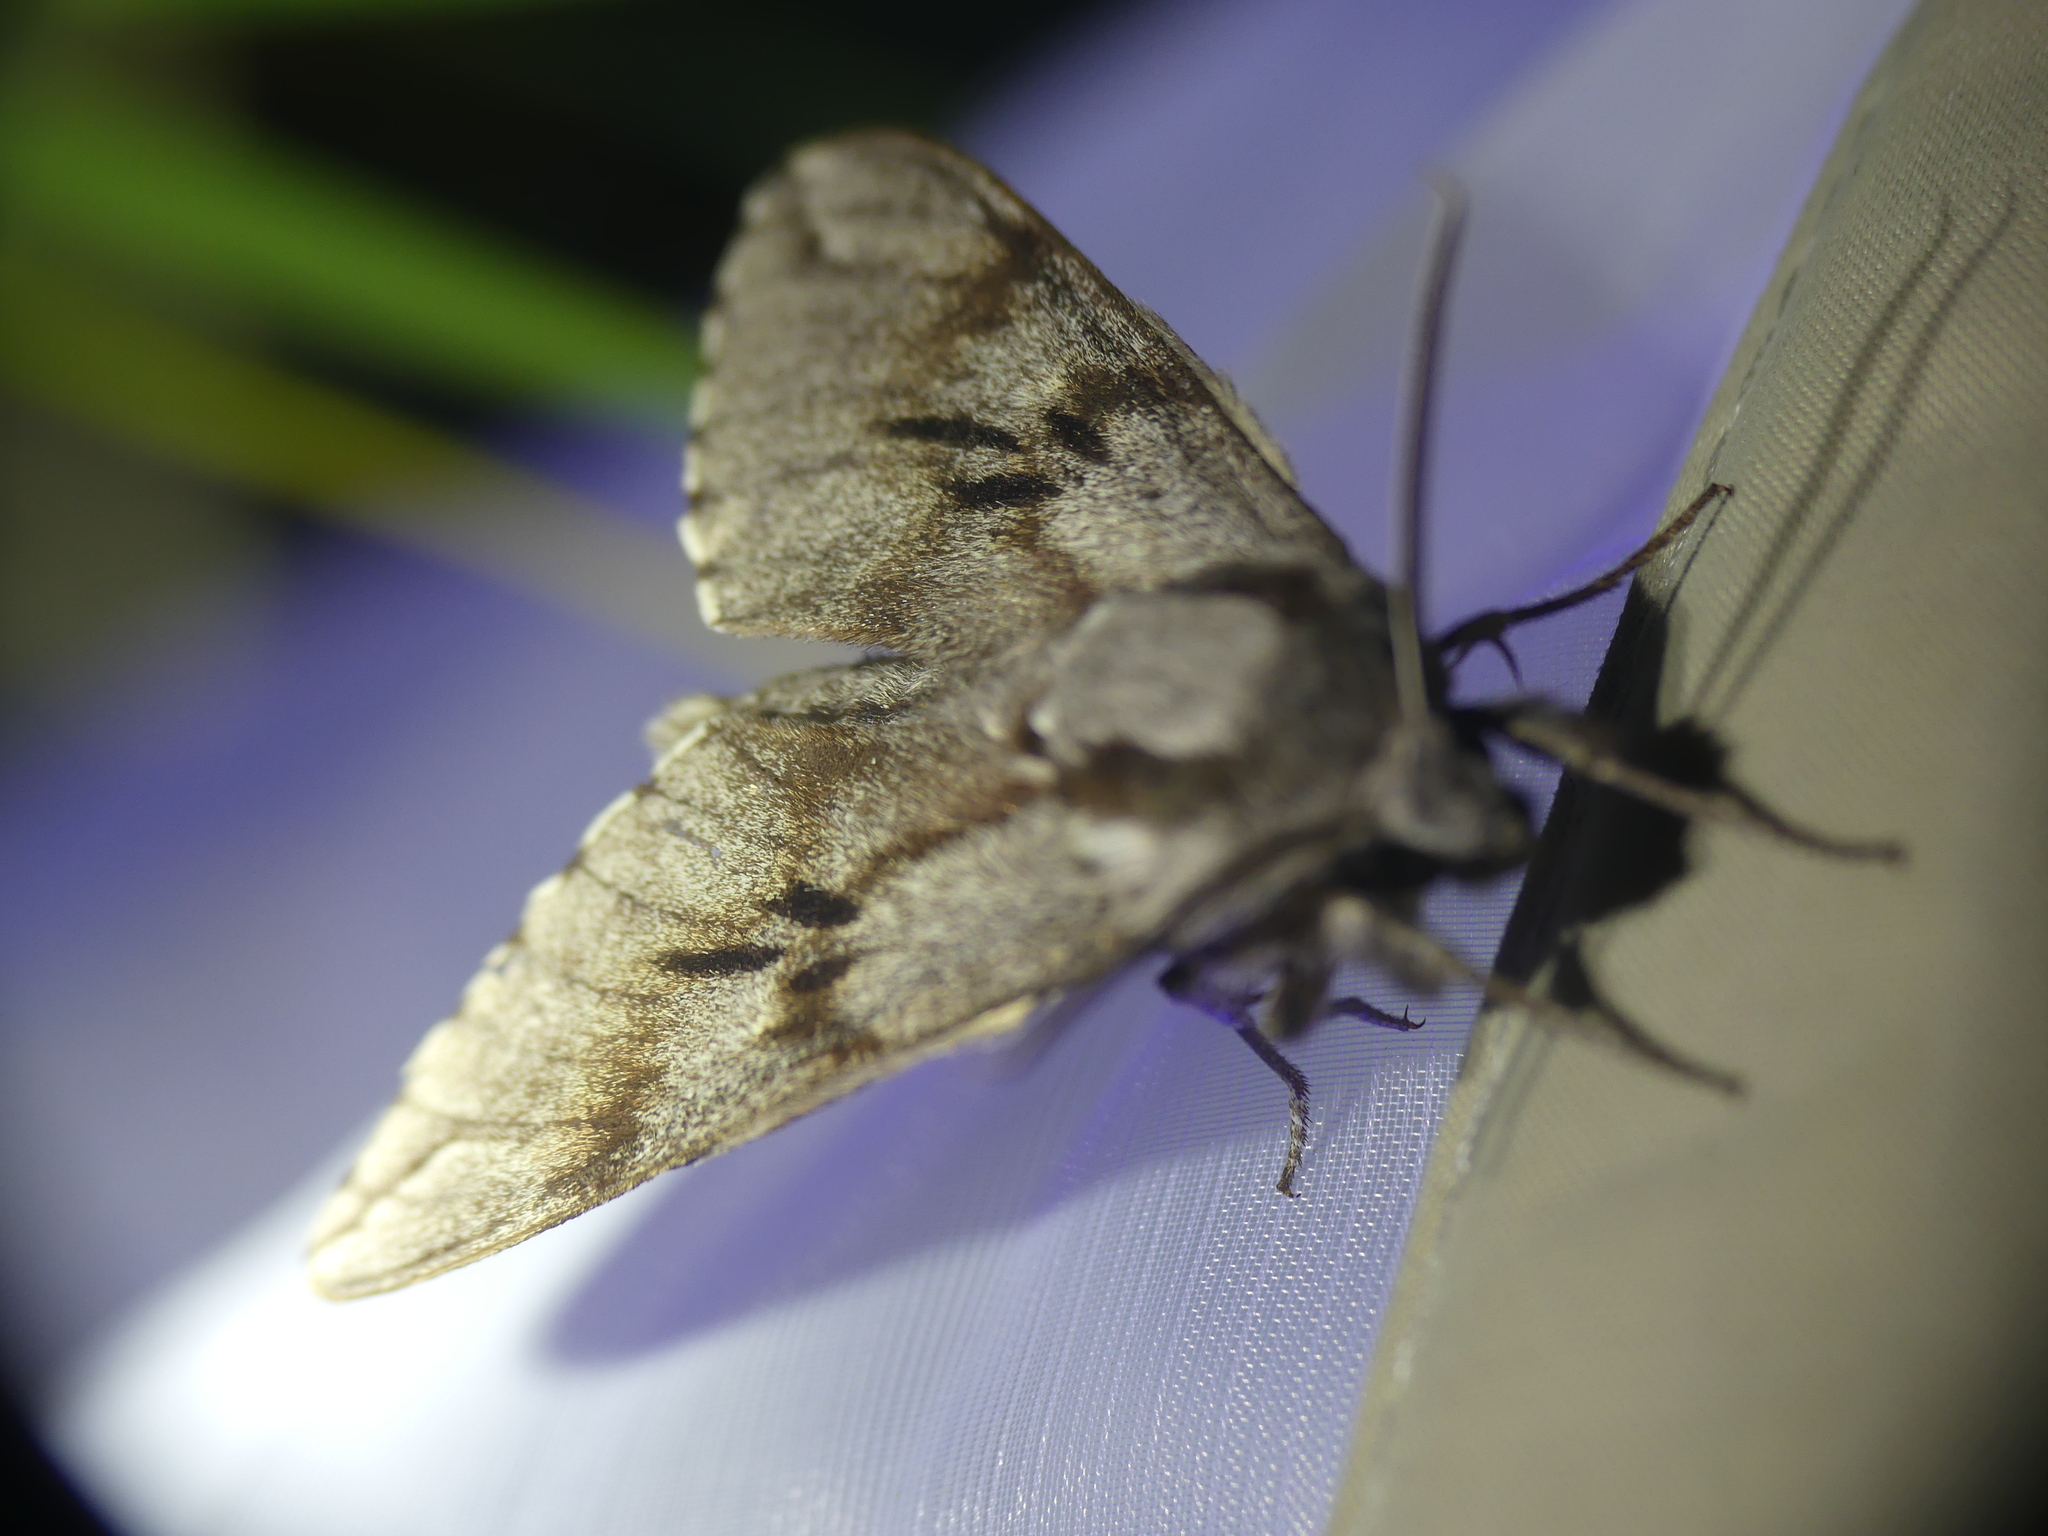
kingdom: Animalia
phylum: Arthropoda
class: Insecta
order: Lepidoptera
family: Sphingidae
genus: Sphinx
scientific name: Sphinx pinastri
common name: Pine hawk-moth
